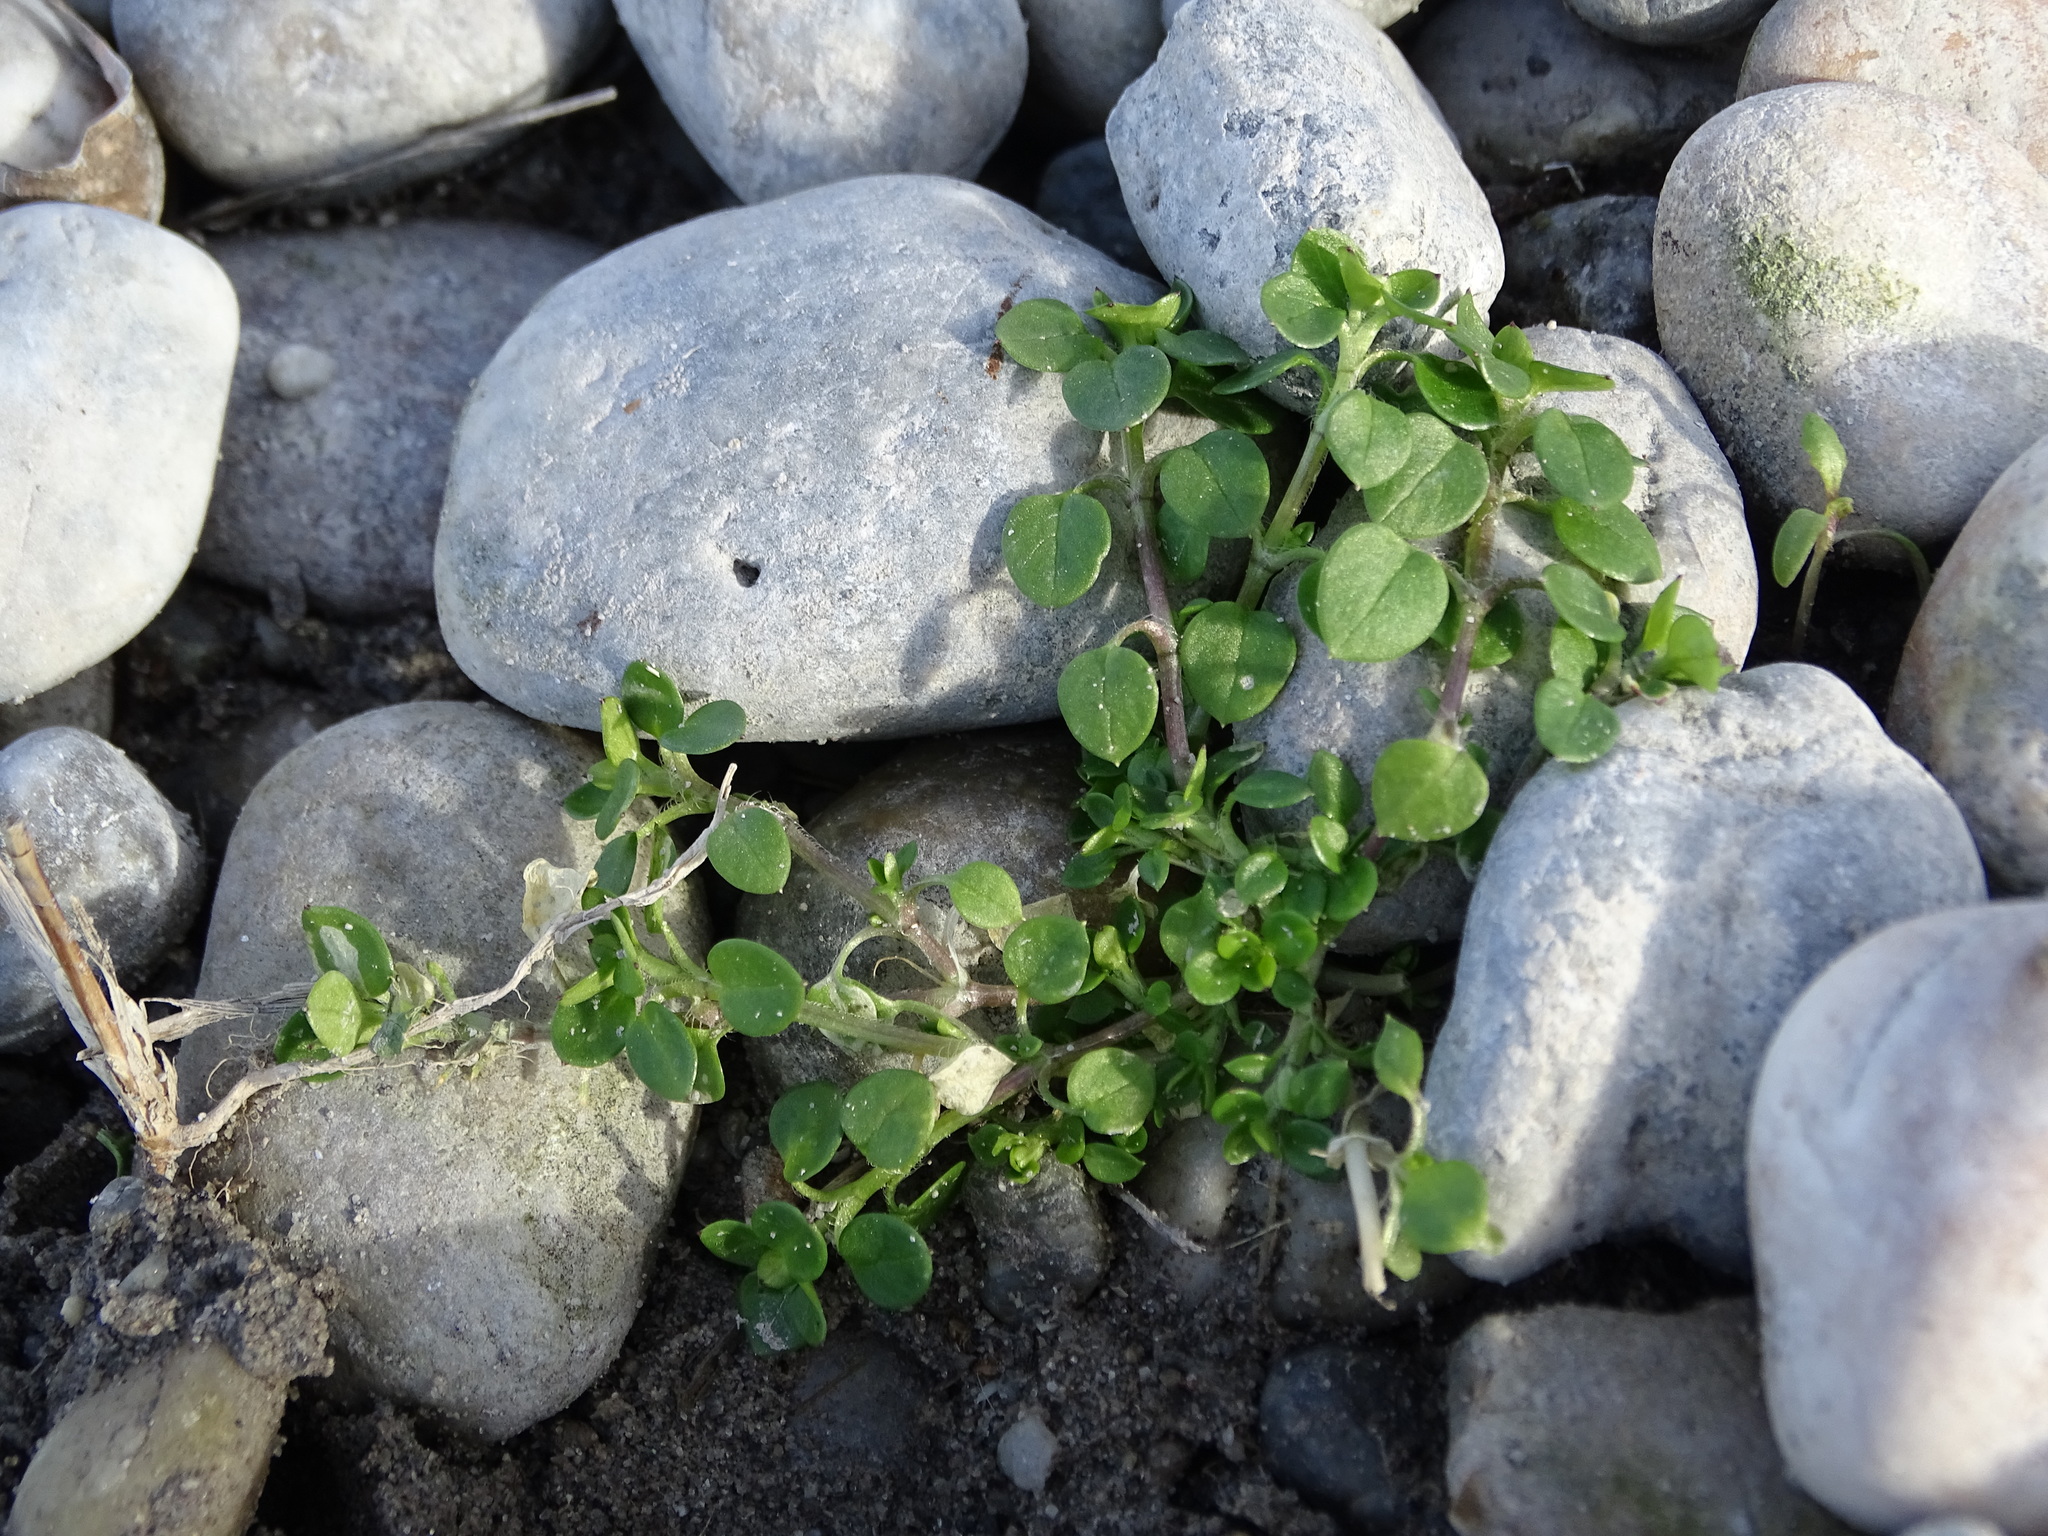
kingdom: Plantae
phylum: Tracheophyta
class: Magnoliopsida
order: Caryophyllales
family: Caryophyllaceae
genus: Stellaria
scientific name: Stellaria media
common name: Common chickweed
